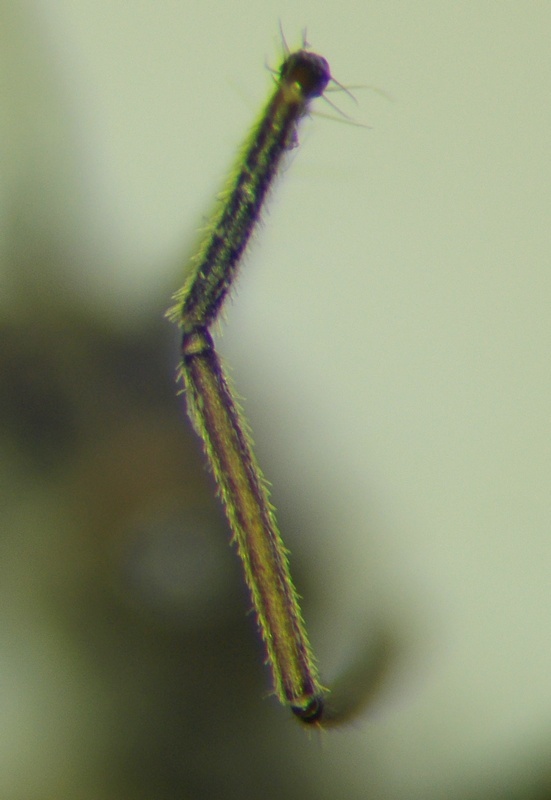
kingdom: Animalia
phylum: Arthropoda
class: Insecta
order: Hemiptera
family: Reduviidae
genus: Coranus
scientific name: Coranus laticeps
